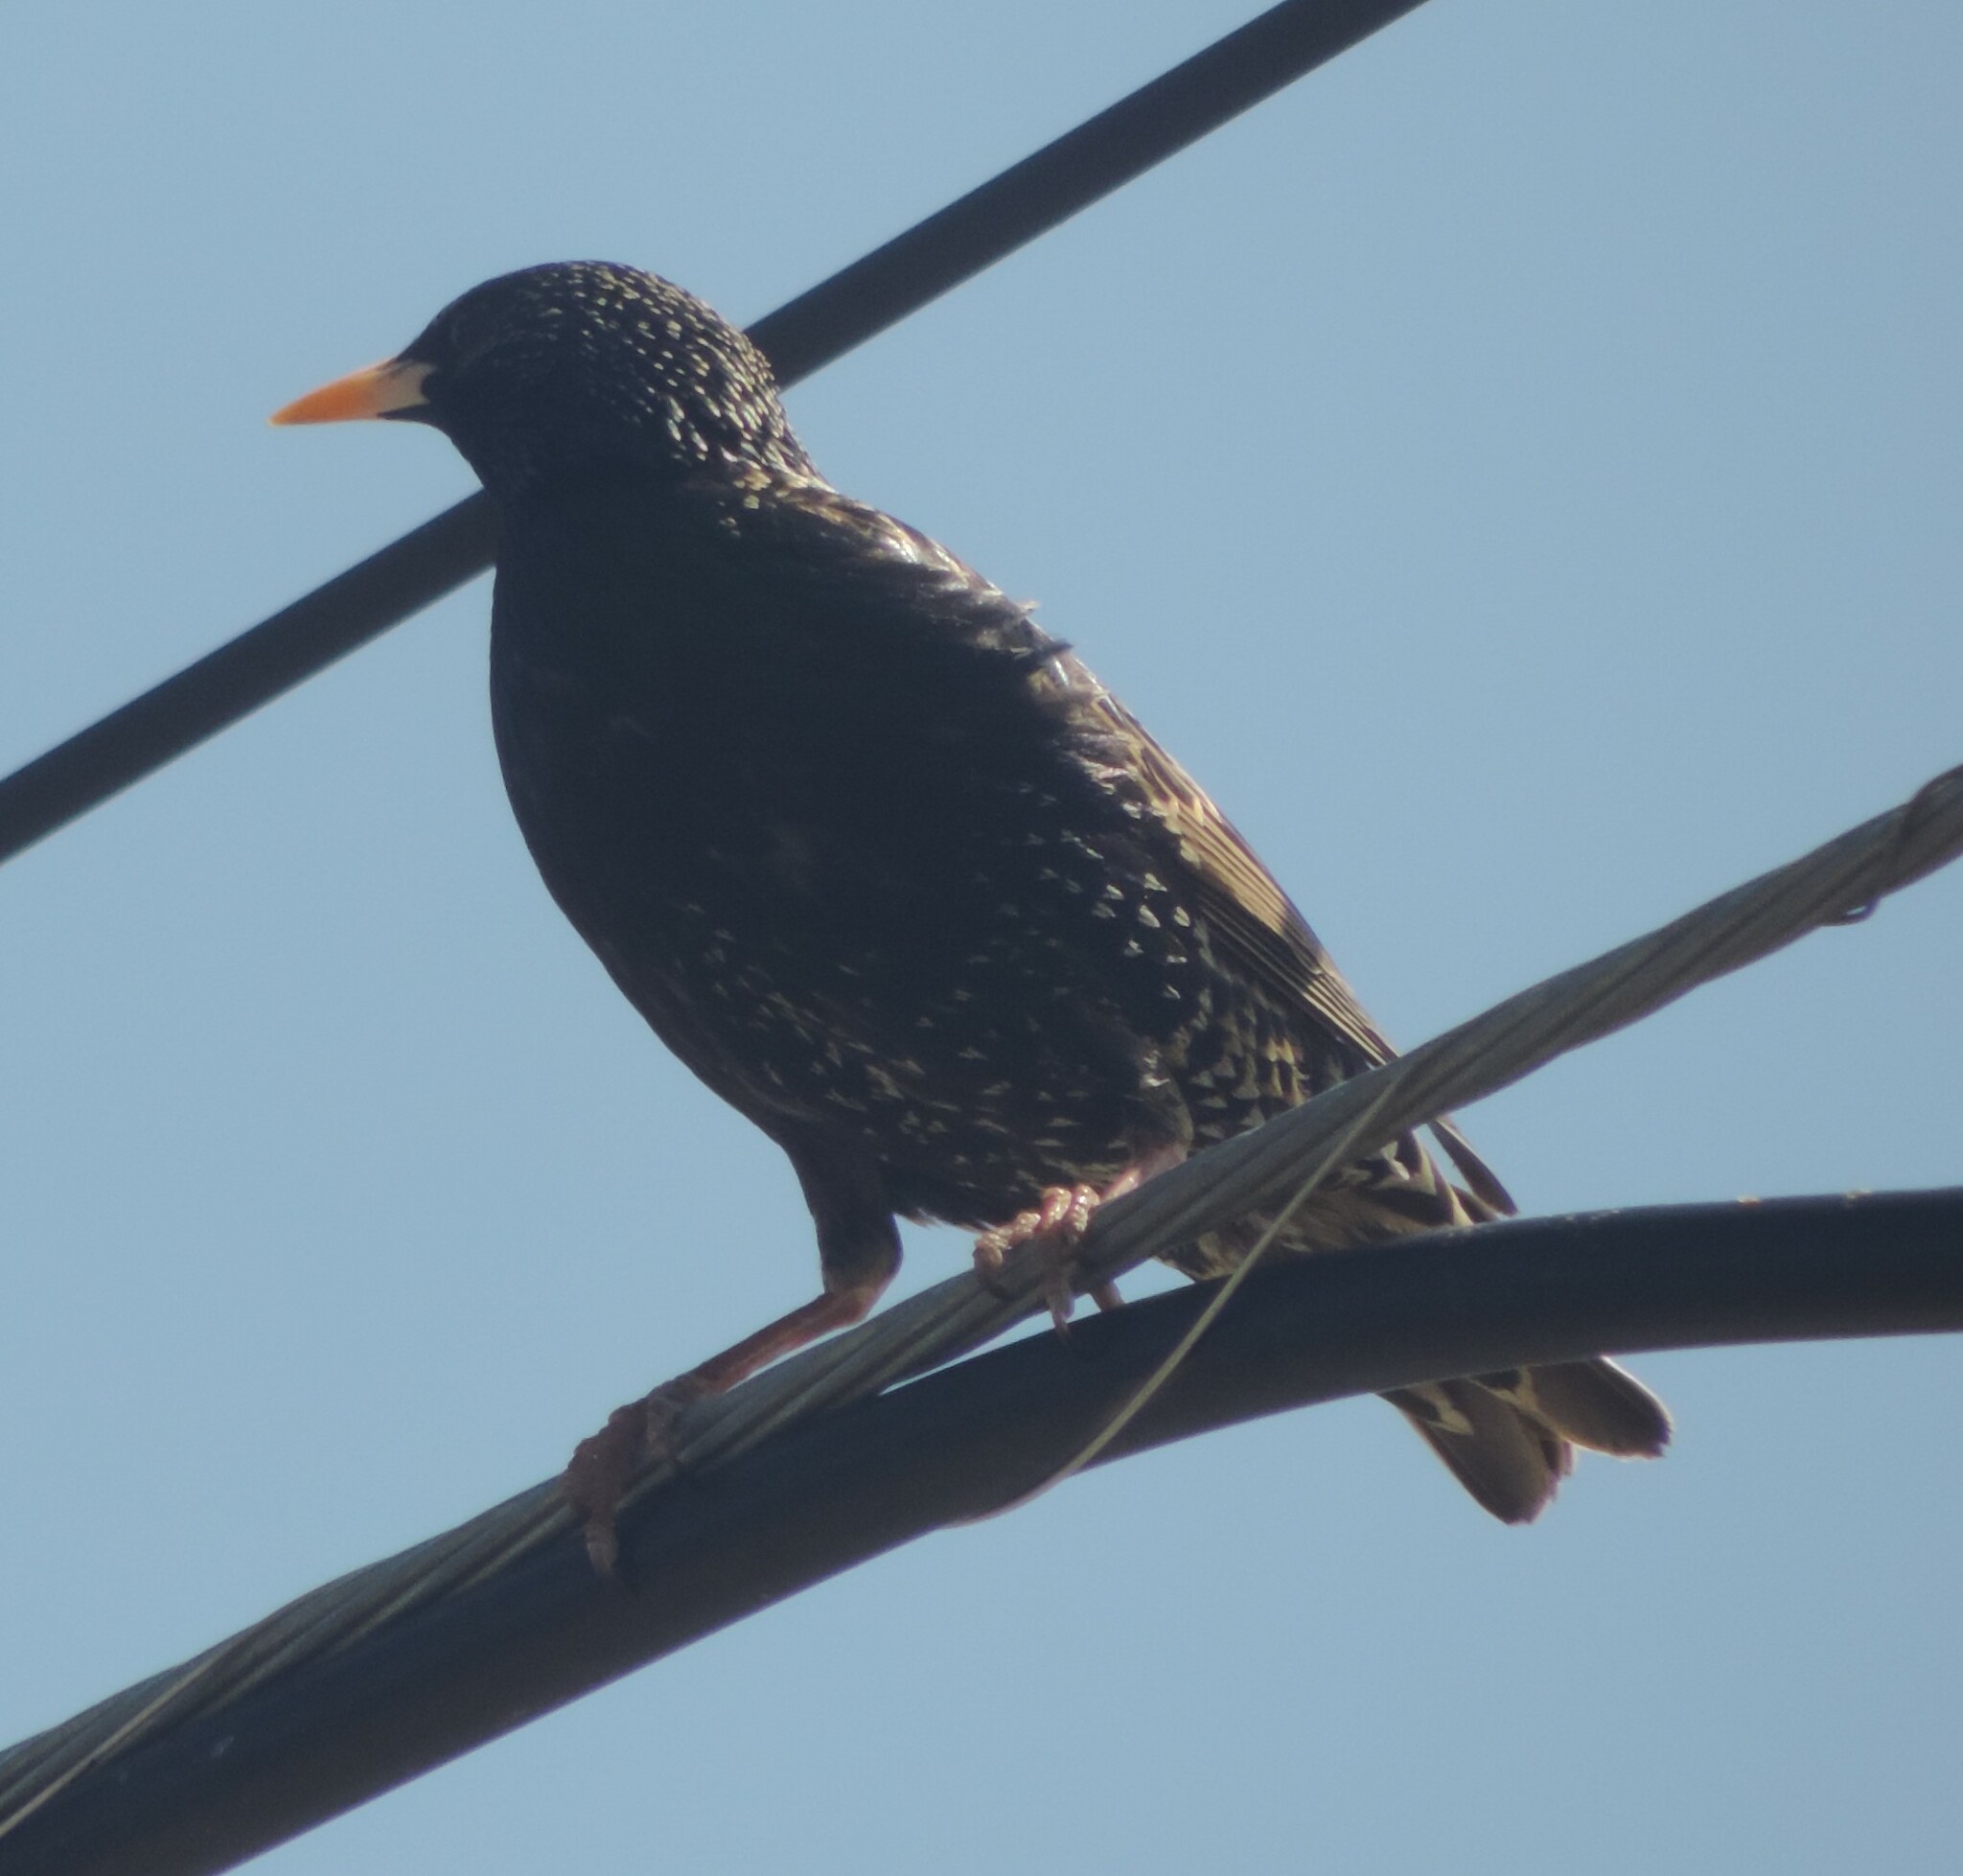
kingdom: Animalia
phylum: Chordata
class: Aves
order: Passeriformes
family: Sturnidae
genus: Sturnus
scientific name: Sturnus vulgaris
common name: Common starling
